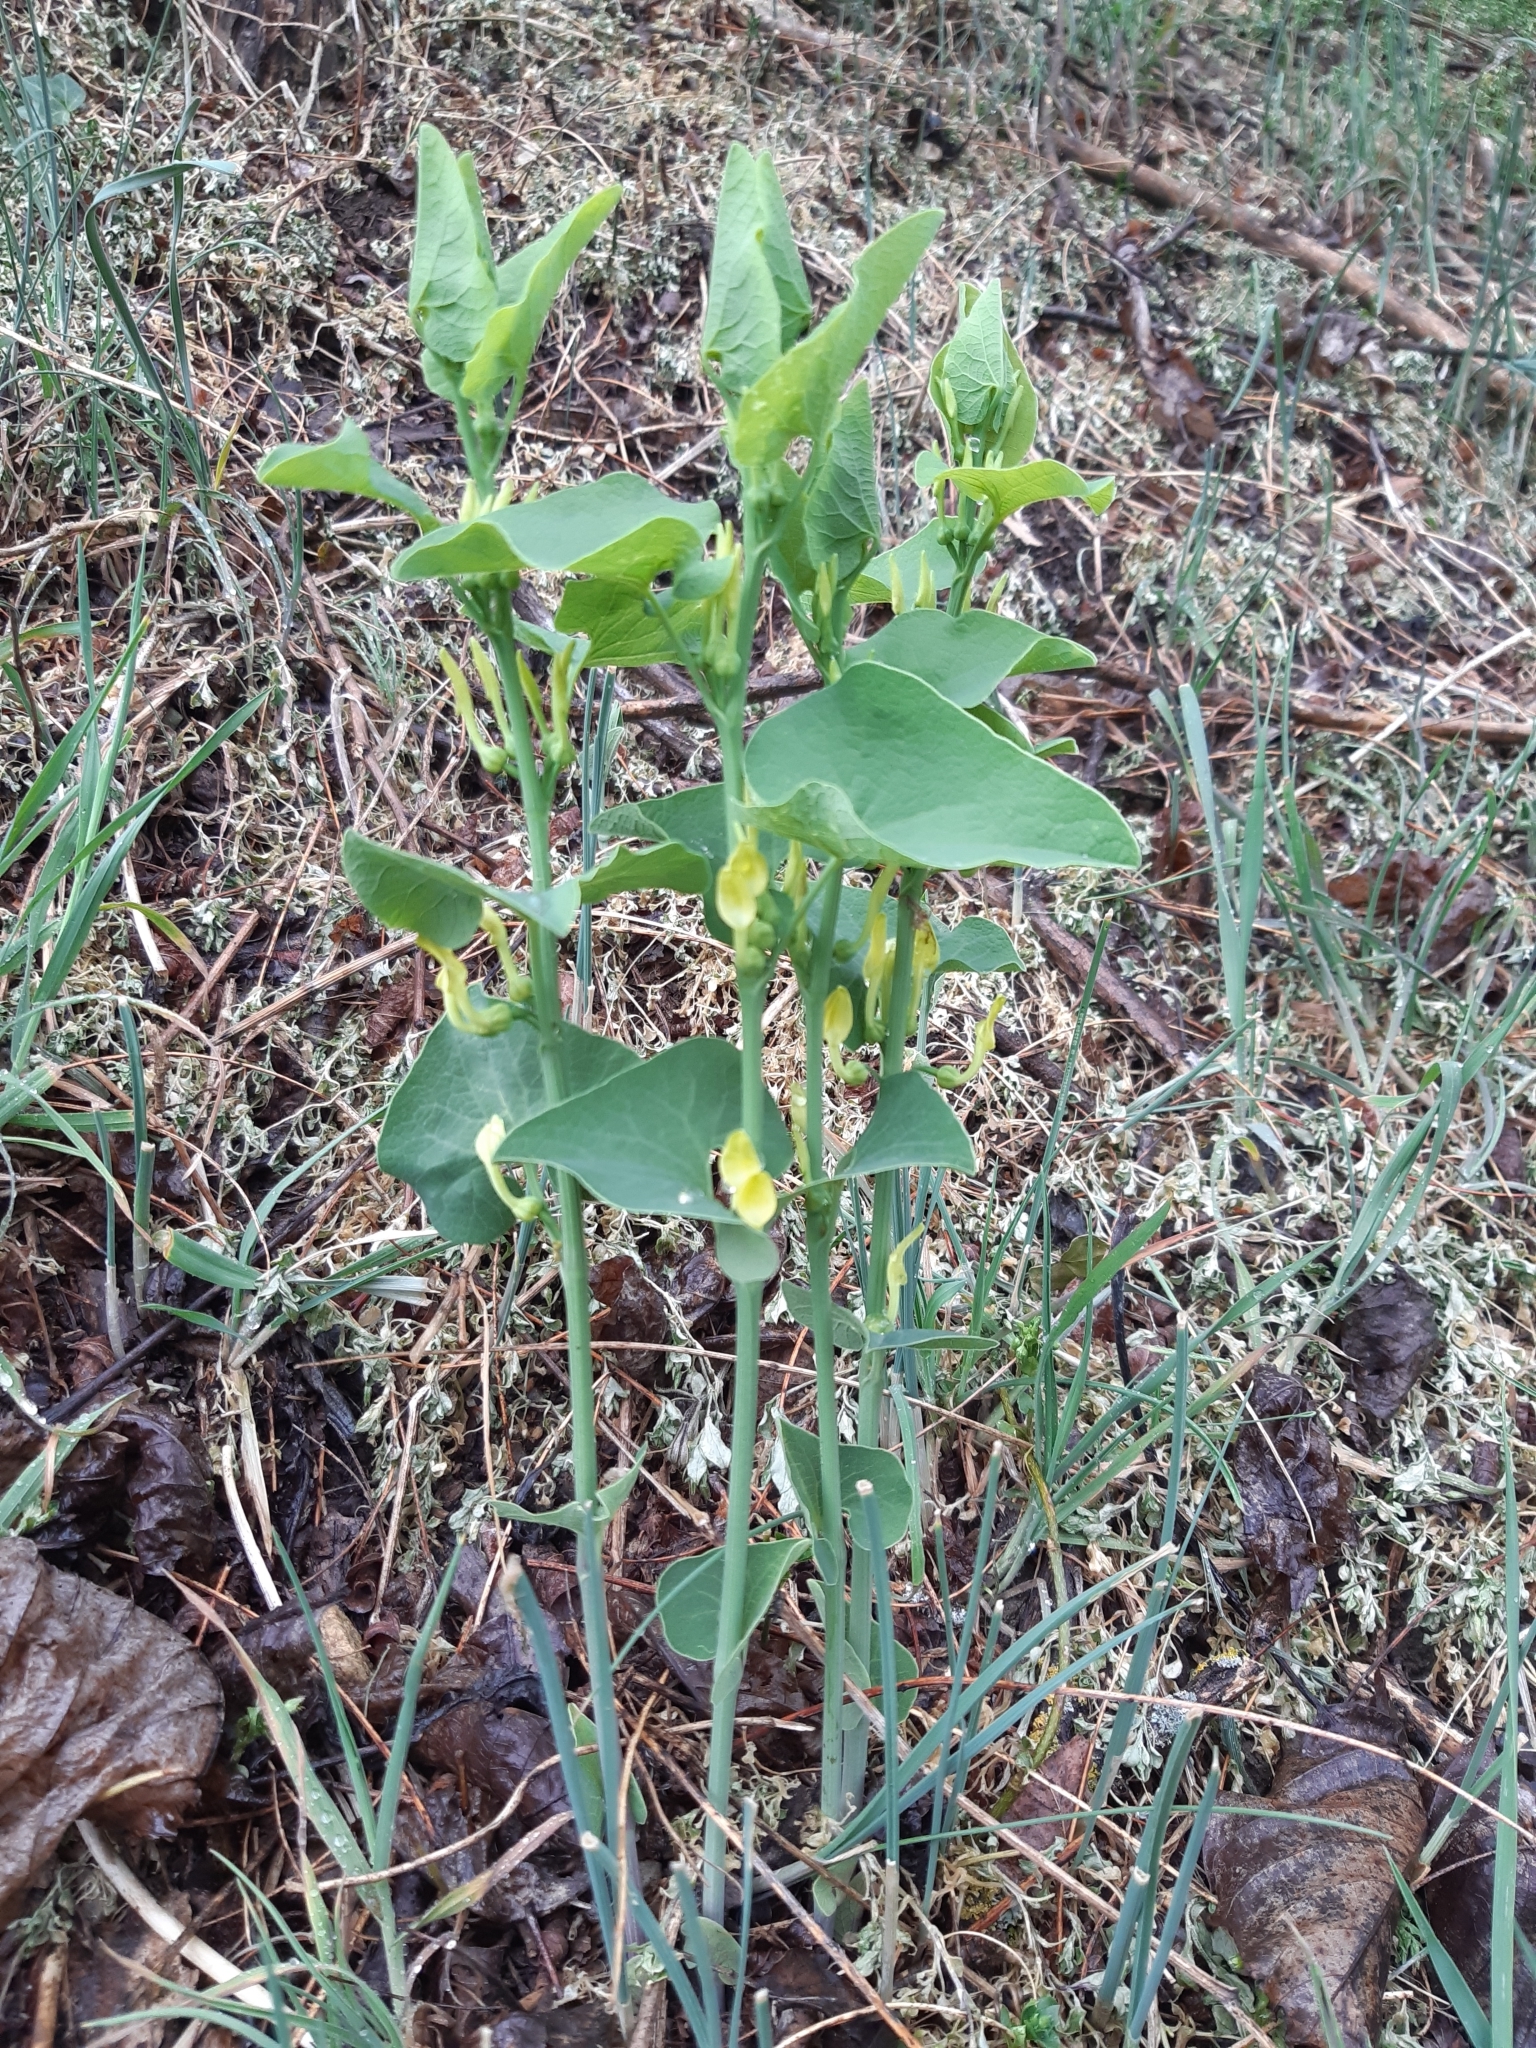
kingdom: Plantae
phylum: Tracheophyta
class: Magnoliopsida
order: Piperales
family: Aristolochiaceae
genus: Aristolochia
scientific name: Aristolochia clematitis
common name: Birthwort
